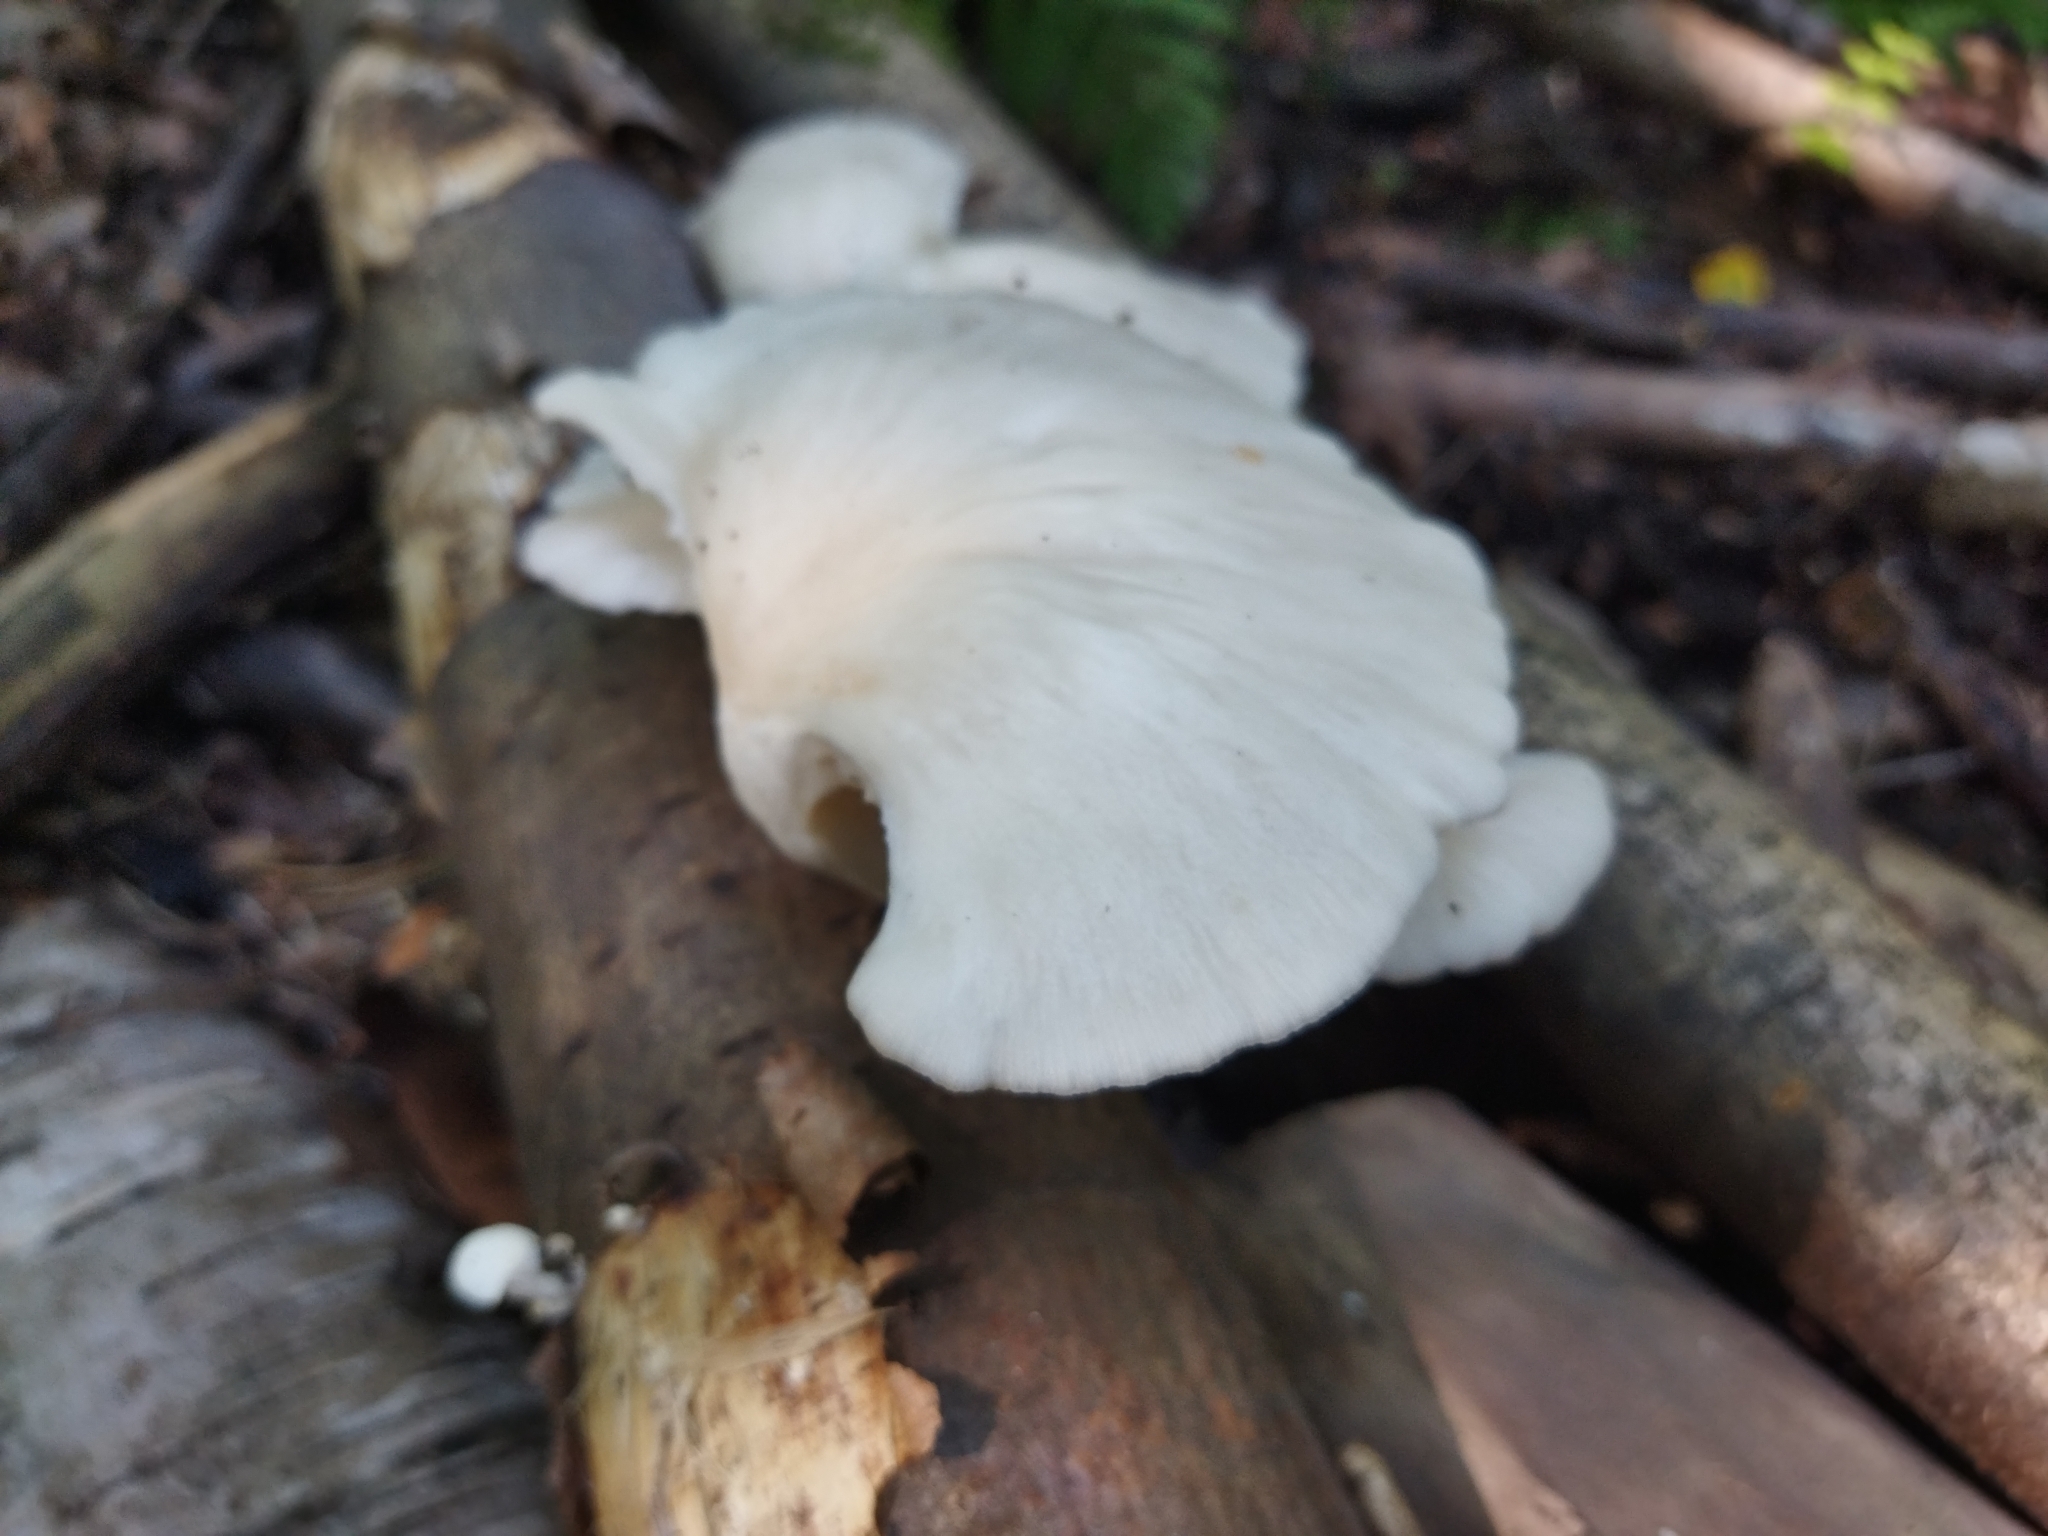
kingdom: Fungi
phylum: Basidiomycota
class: Agaricomycetes
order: Agaricales
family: Pleurotaceae
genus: Pleurotus
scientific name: Pleurotus pulmonarius
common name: Pale oyster
